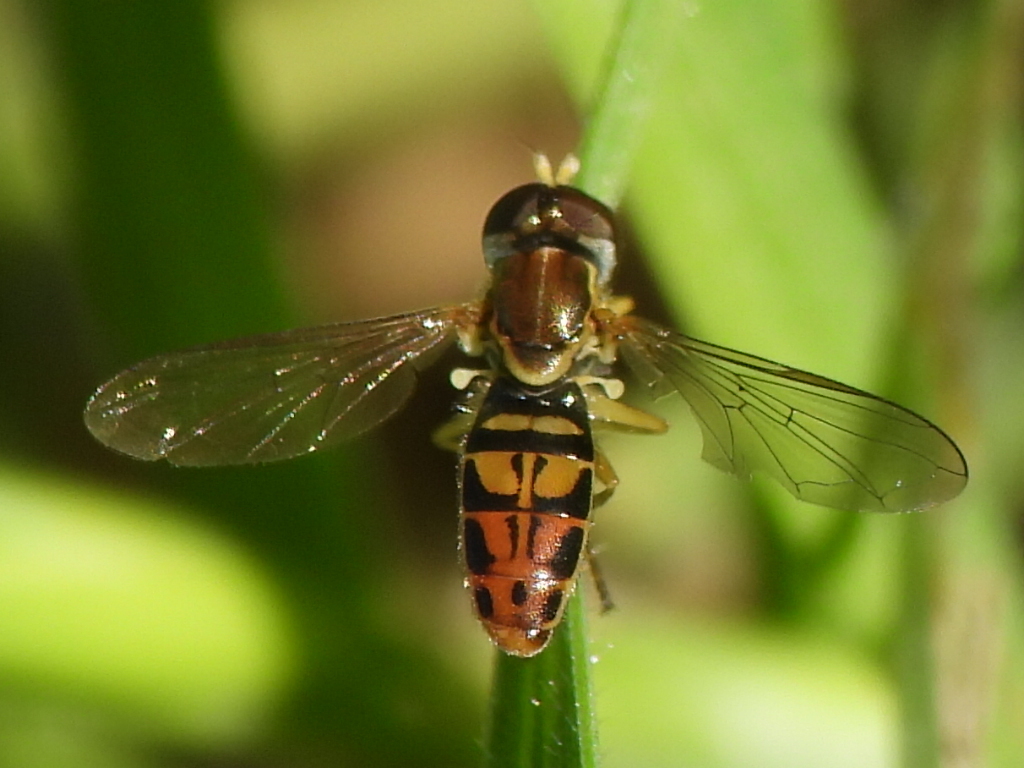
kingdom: Animalia
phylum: Arthropoda
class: Insecta
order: Diptera
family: Syrphidae
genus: Toxomerus
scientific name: Toxomerus marginatus
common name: Syrphid fly
